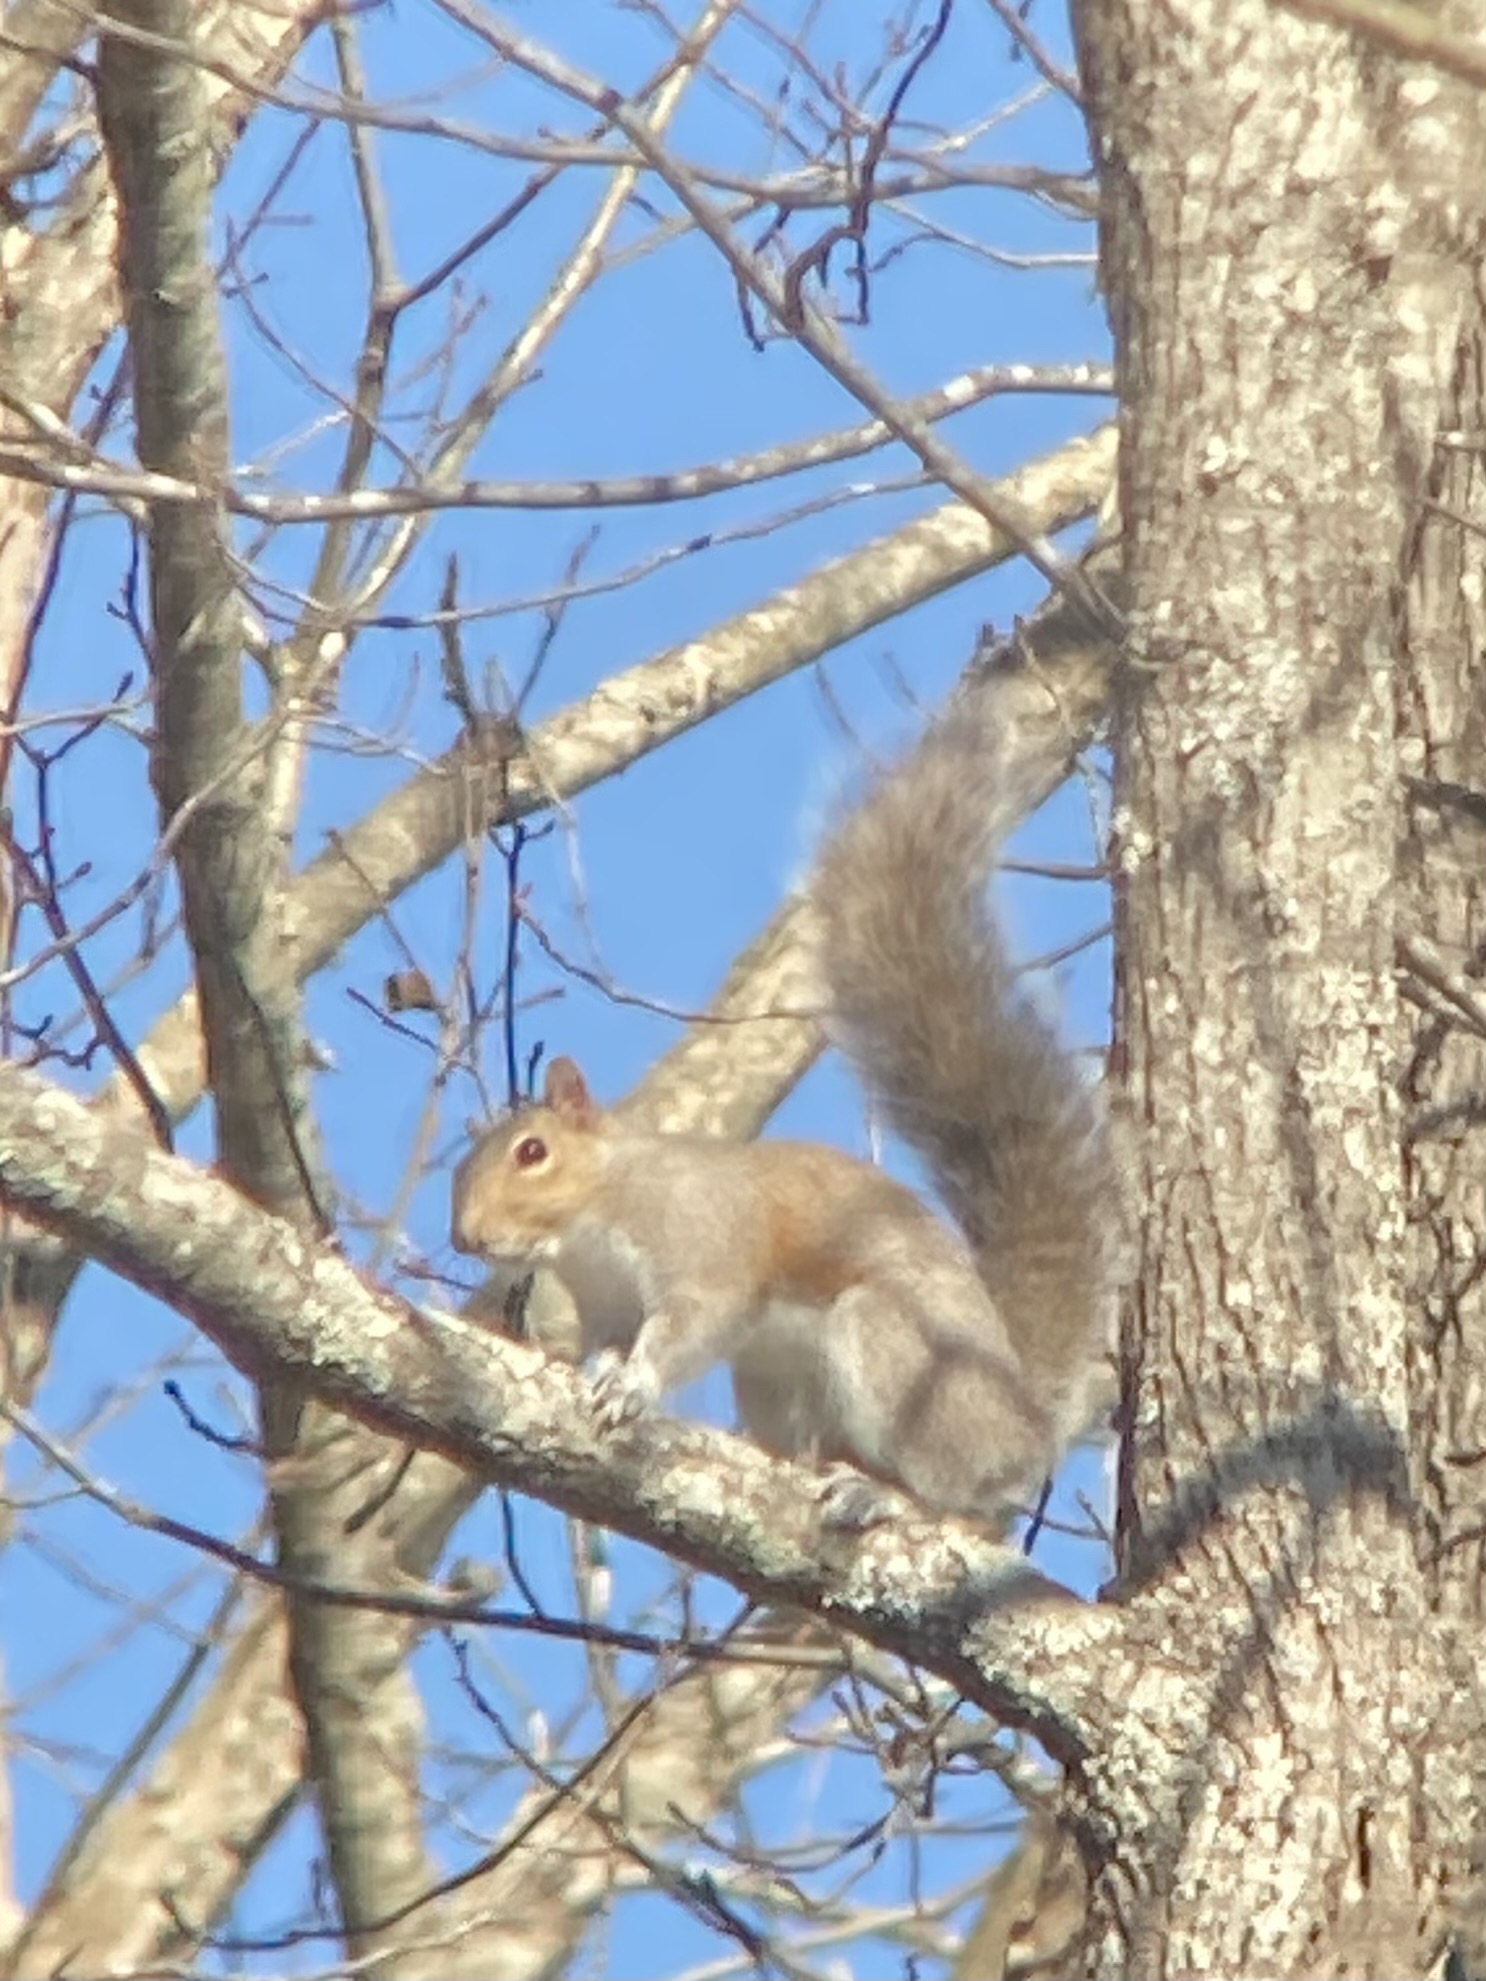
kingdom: Animalia
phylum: Chordata
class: Mammalia
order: Rodentia
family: Sciuridae
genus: Sciurus
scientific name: Sciurus carolinensis
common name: Eastern gray squirrel
